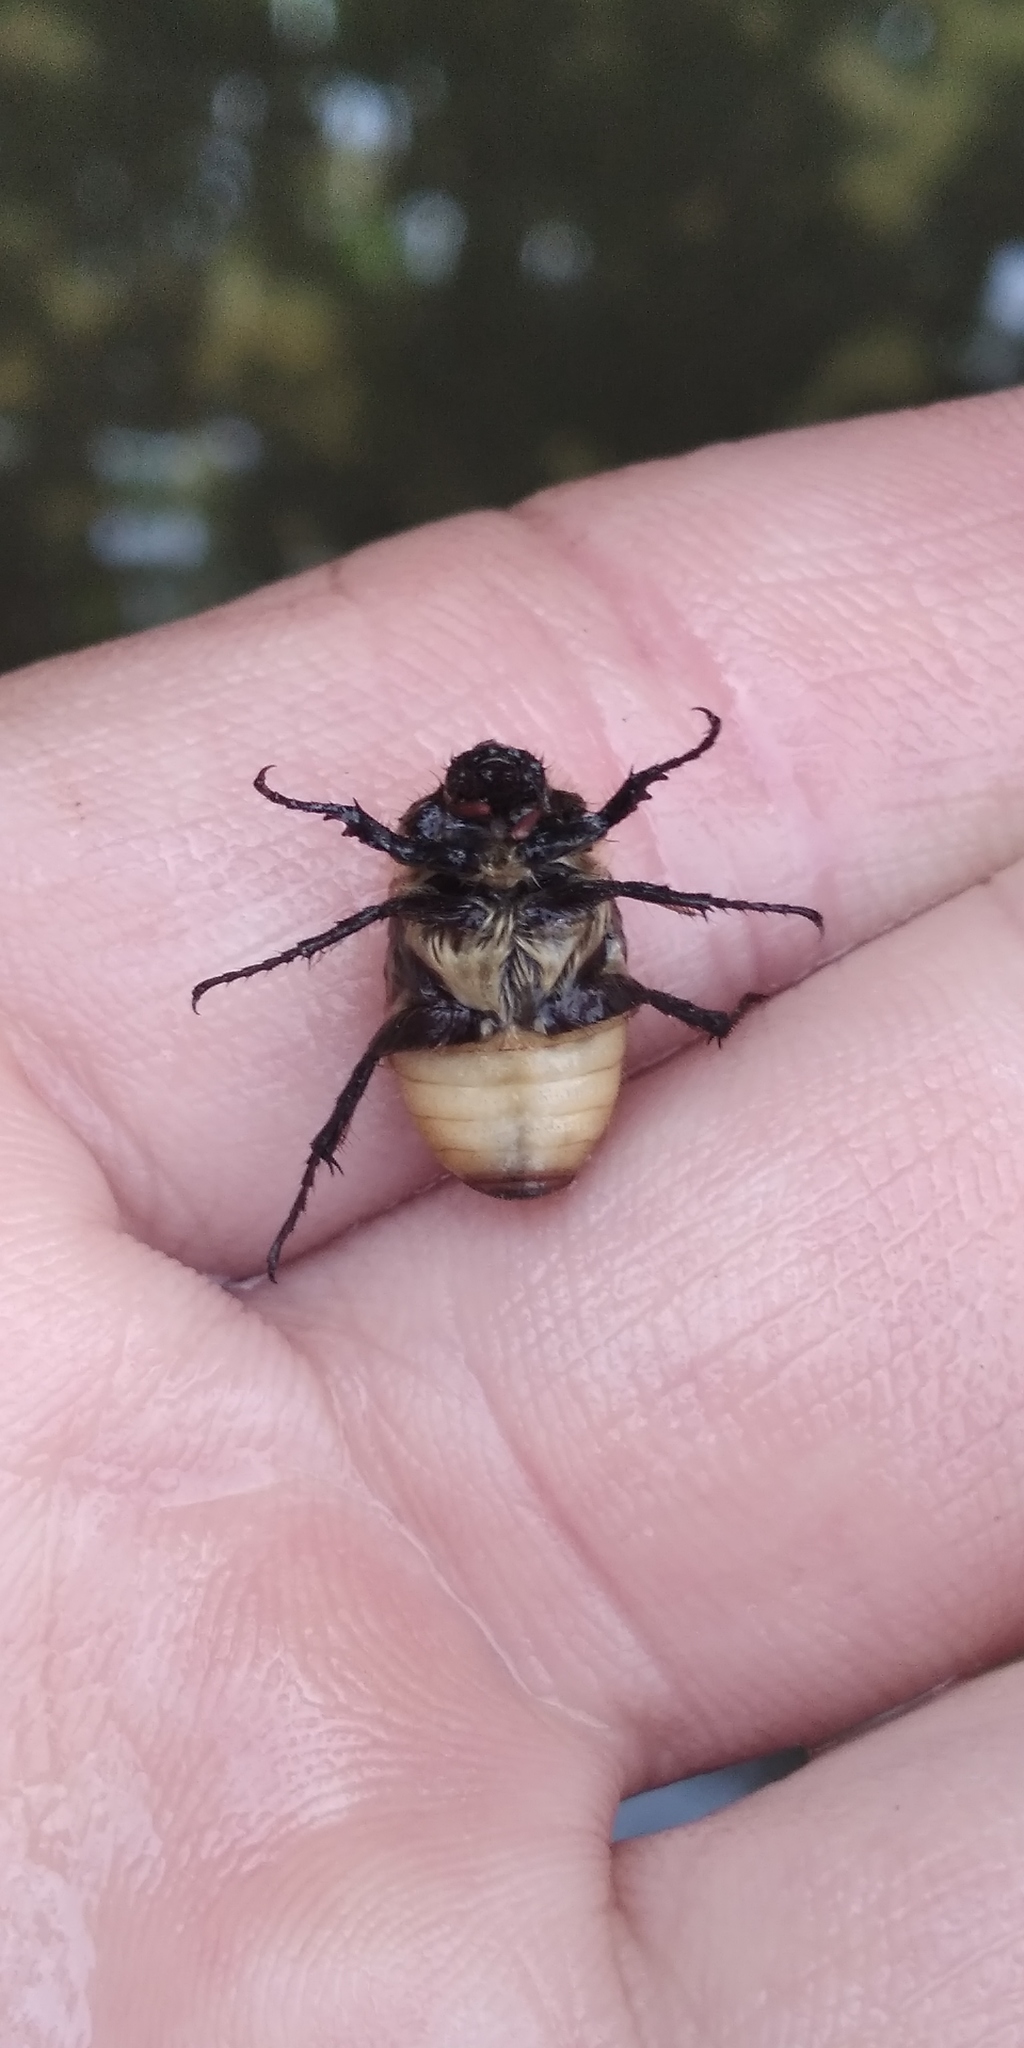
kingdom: Animalia
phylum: Arthropoda
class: Insecta
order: Coleoptera
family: Scarabaeidae
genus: Amphimallon
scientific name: Amphimallon ruficorne
